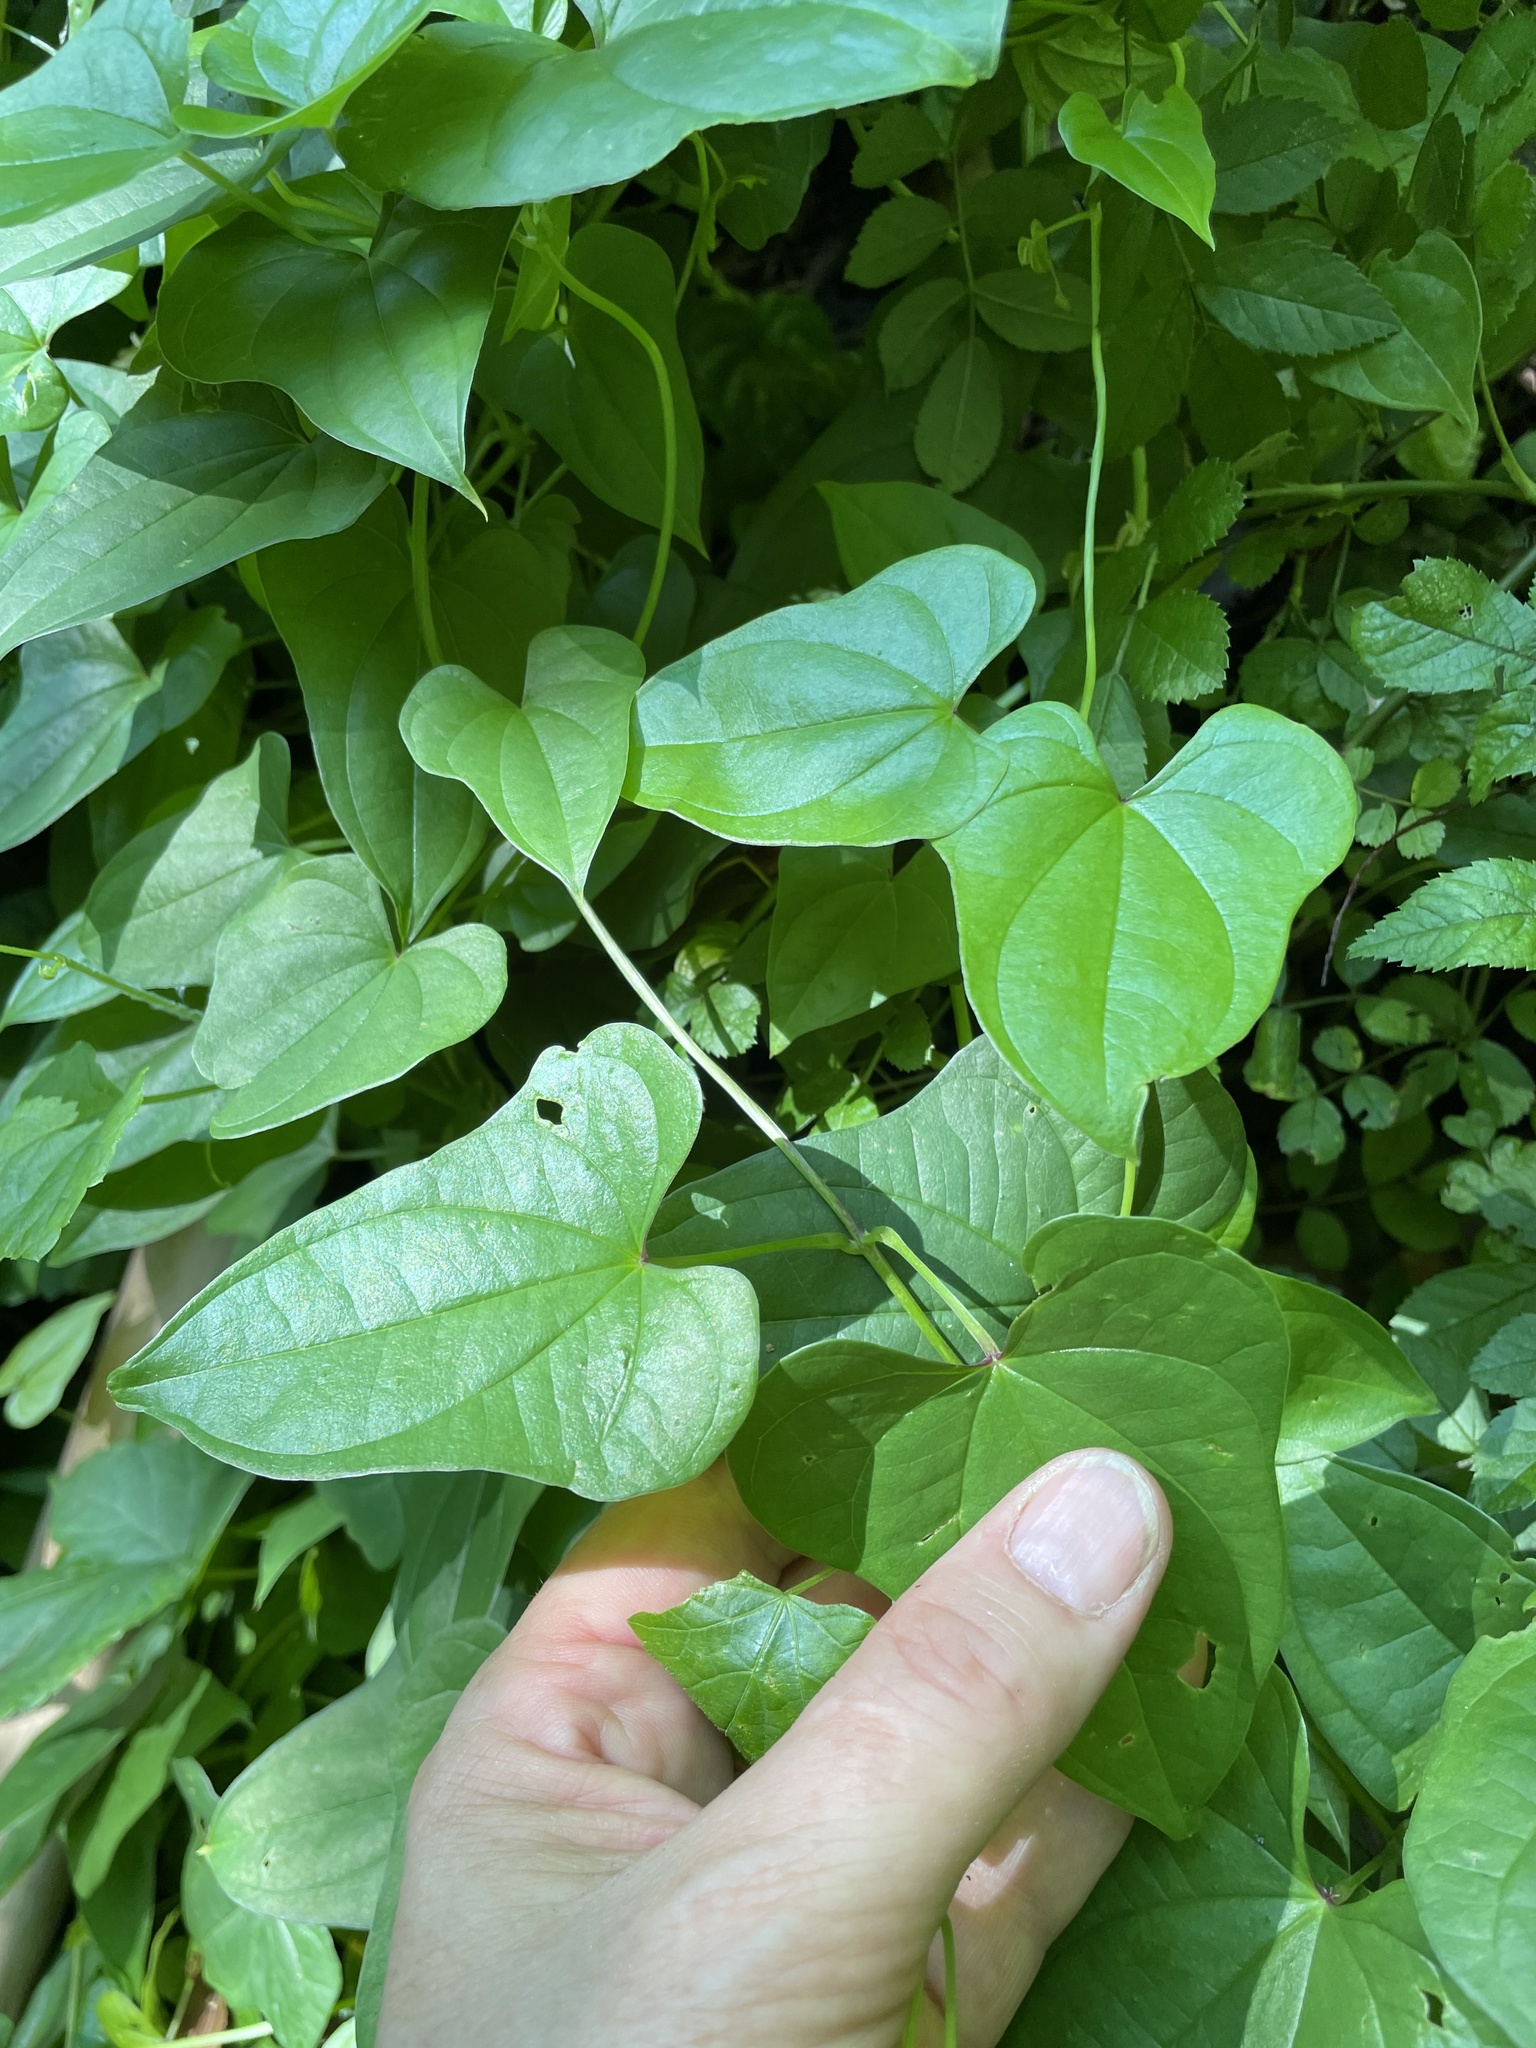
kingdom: Plantae
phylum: Tracheophyta
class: Liliopsida
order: Dioscoreales
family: Dioscoreaceae
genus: Dioscorea
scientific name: Dioscorea polystachya
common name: Chinese yam
